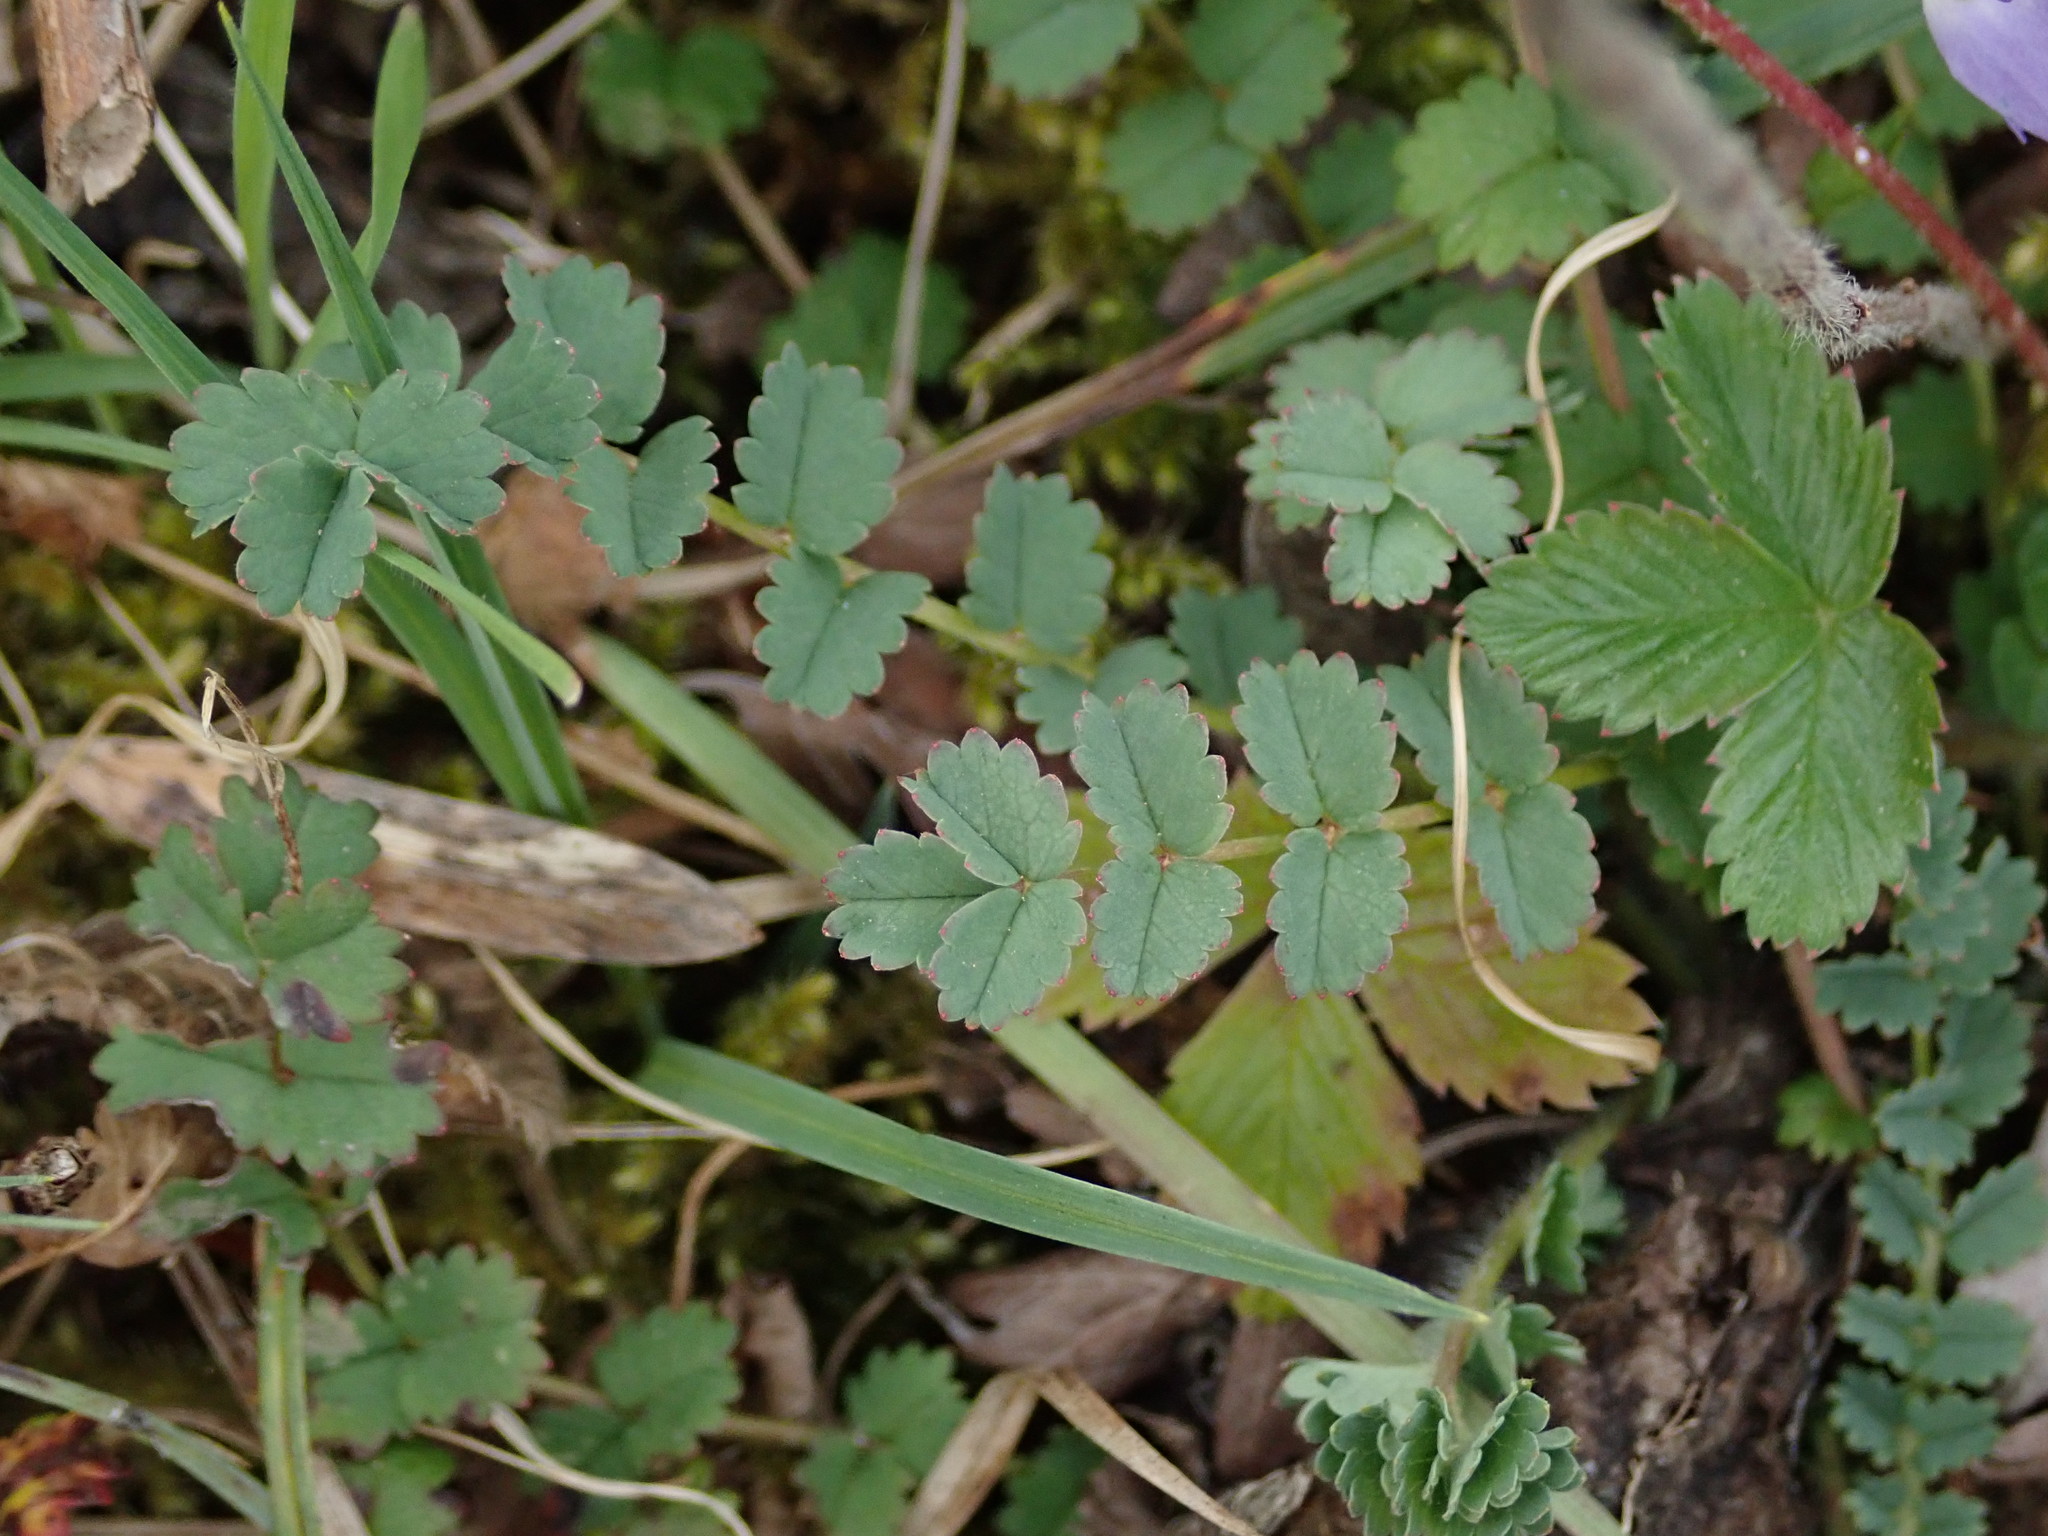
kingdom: Plantae
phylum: Tracheophyta
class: Magnoliopsida
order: Rosales
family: Rosaceae
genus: Poterium
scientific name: Poterium sanguisorba
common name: Salad burnet
